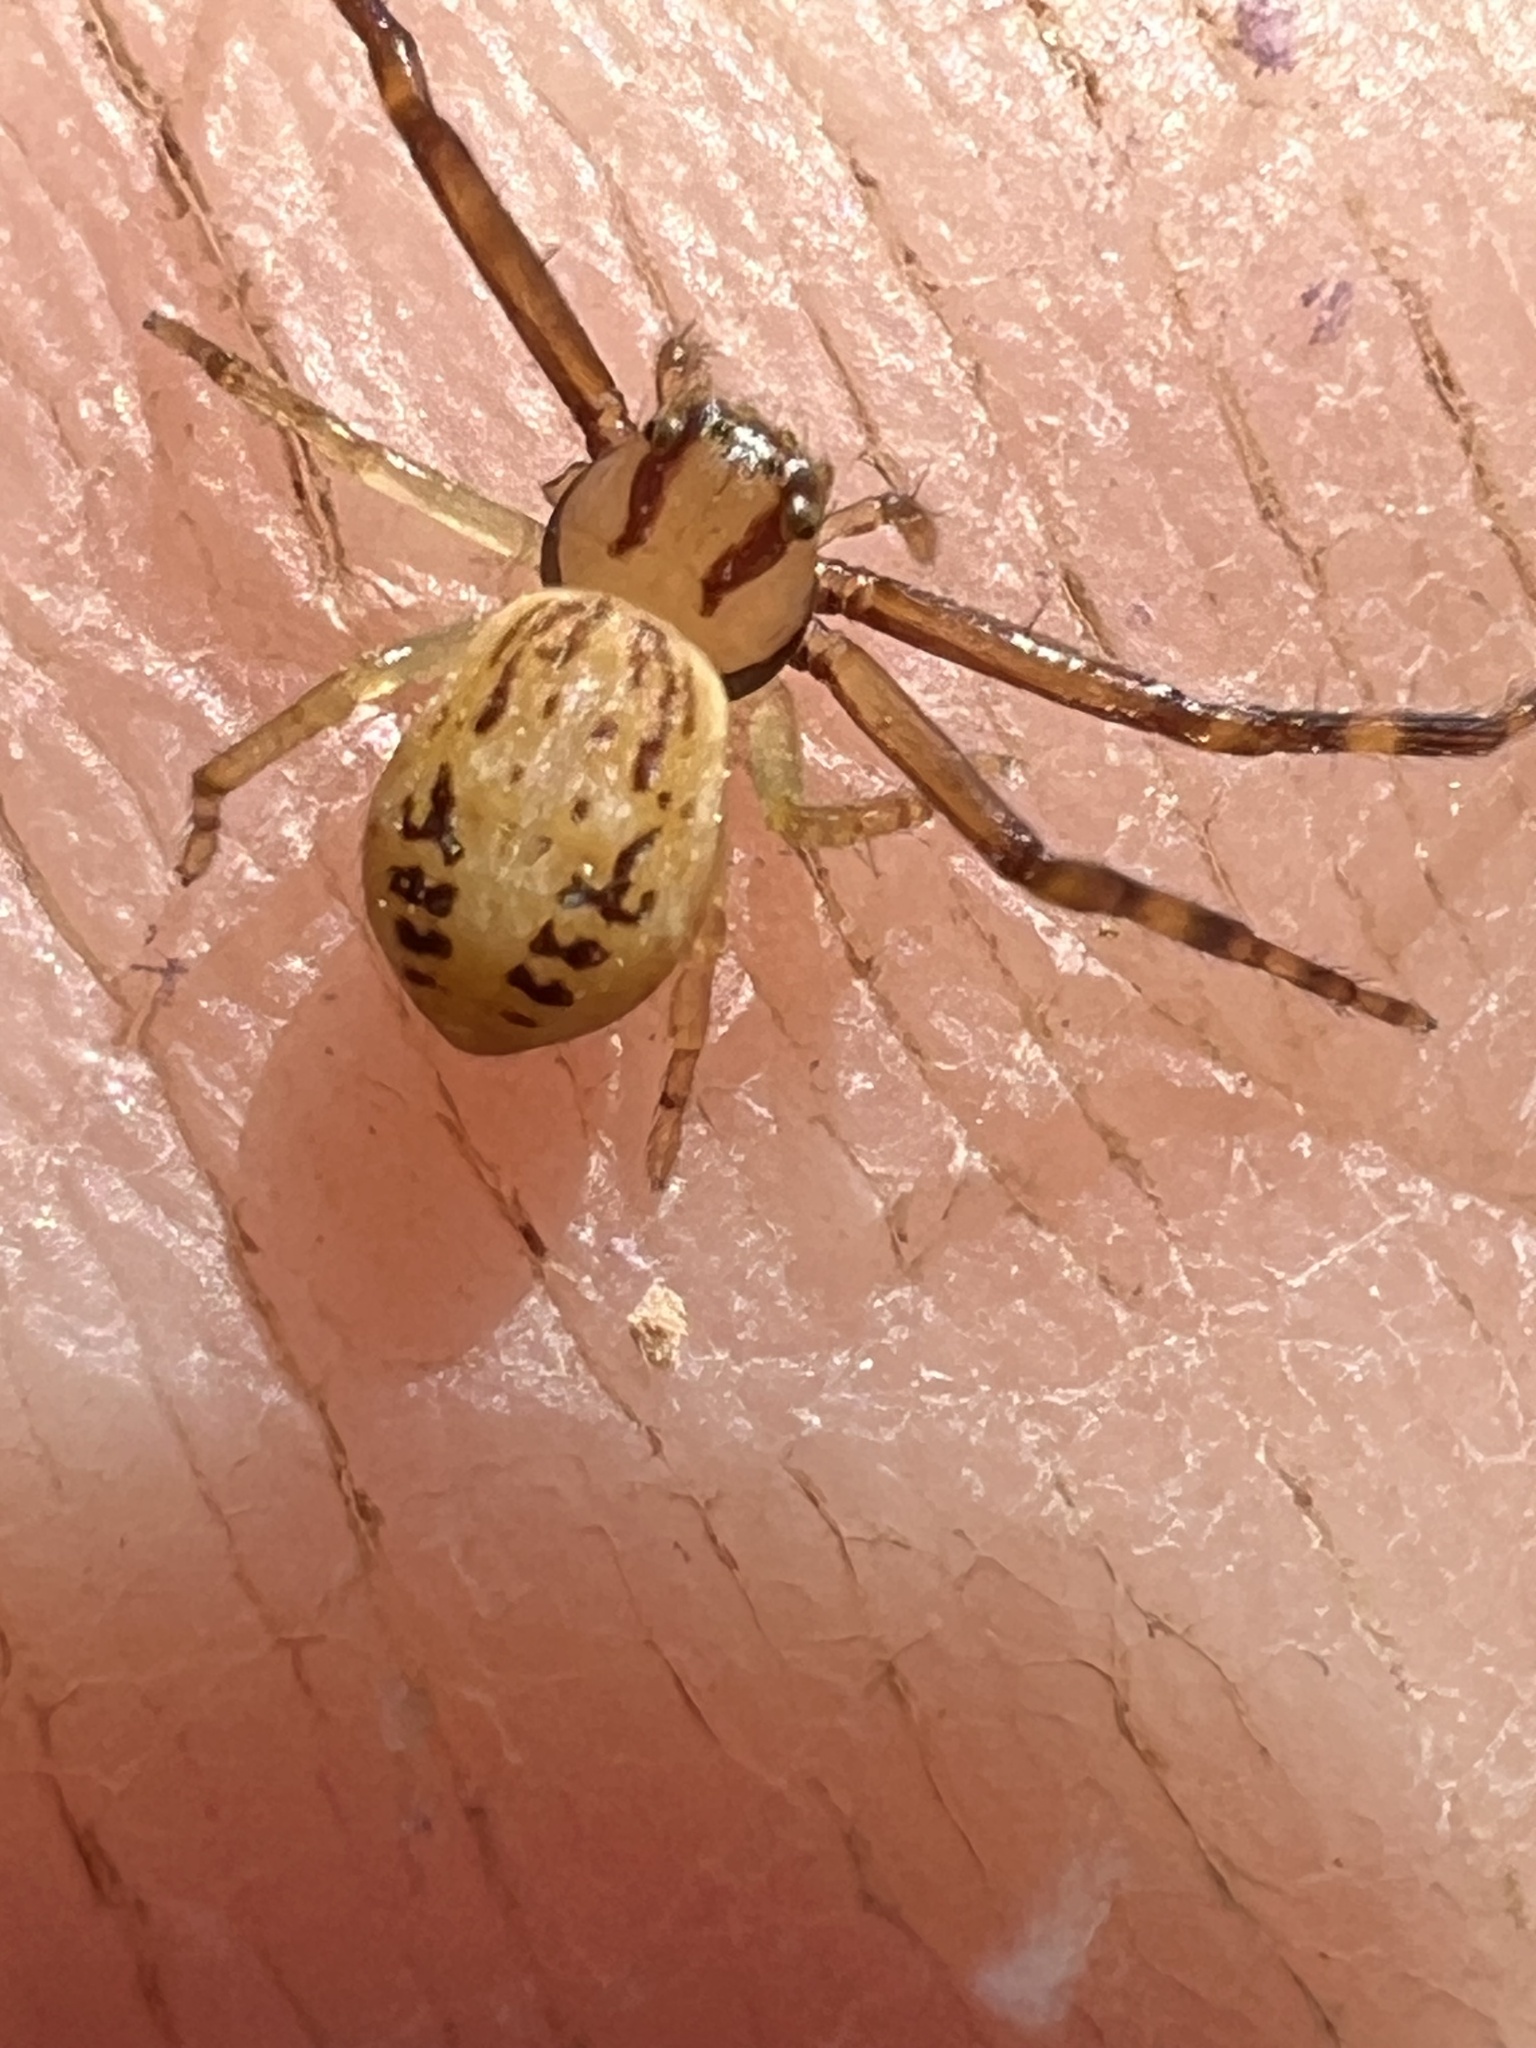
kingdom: Animalia
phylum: Arthropoda
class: Arachnida
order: Araneae
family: Thomisidae
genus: Diaea
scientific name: Diaea ambara
